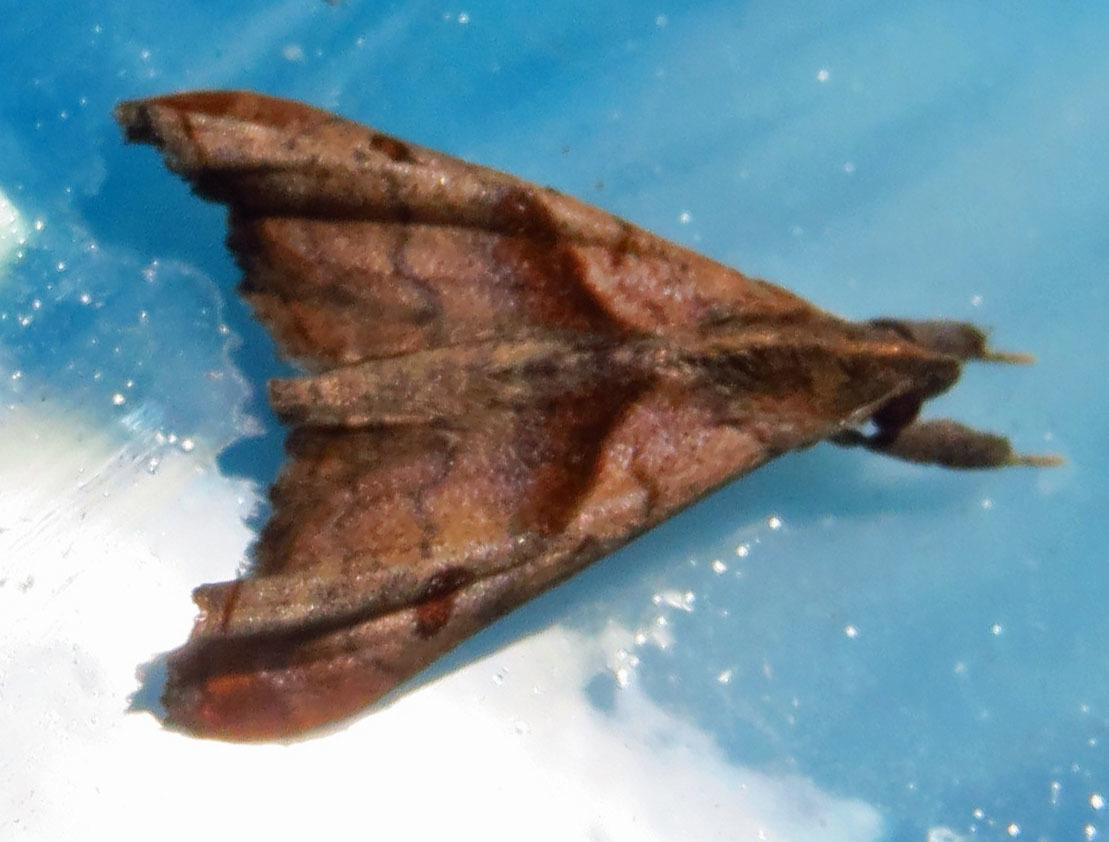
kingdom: Animalia
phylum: Arthropoda
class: Insecta
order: Lepidoptera
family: Erebidae
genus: Palthis
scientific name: Palthis angulalis
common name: Dark-spotted palthis moth
